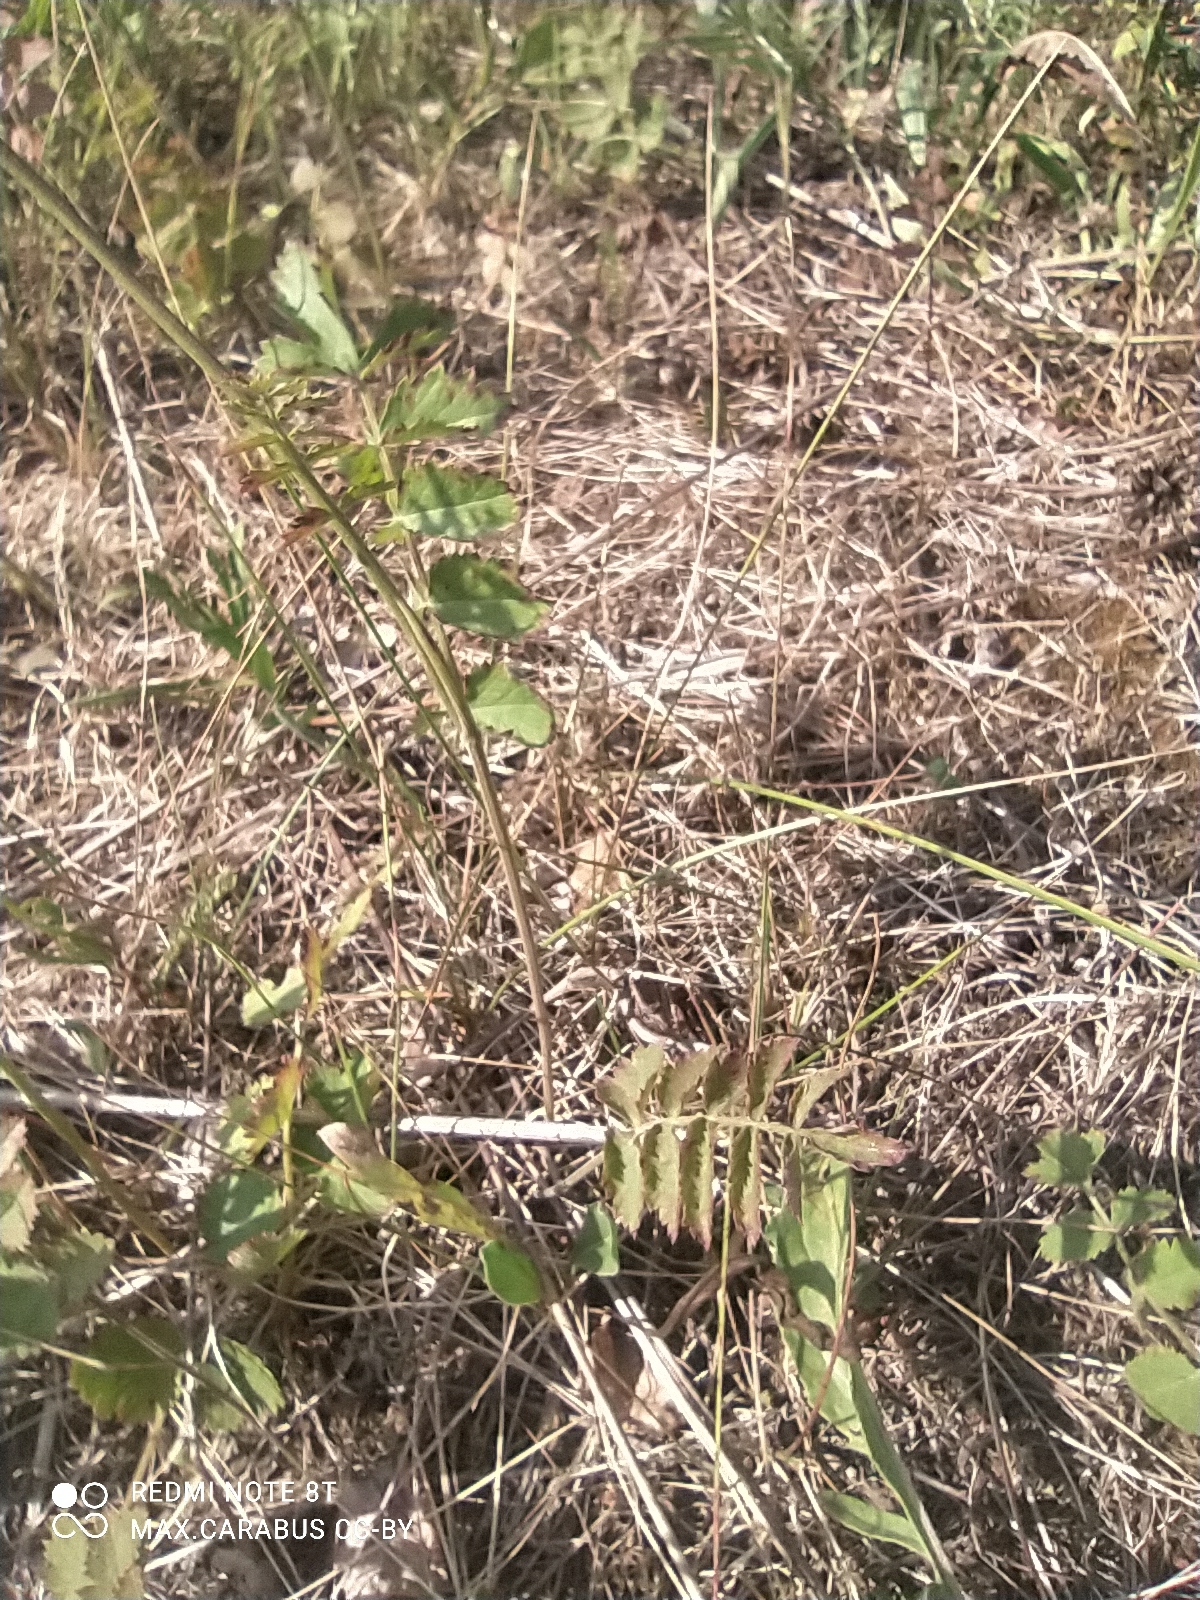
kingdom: Plantae
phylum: Tracheophyta
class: Magnoliopsida
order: Apiales
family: Apiaceae
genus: Pimpinella
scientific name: Pimpinella saxifraga
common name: Burnet-saxifrage
